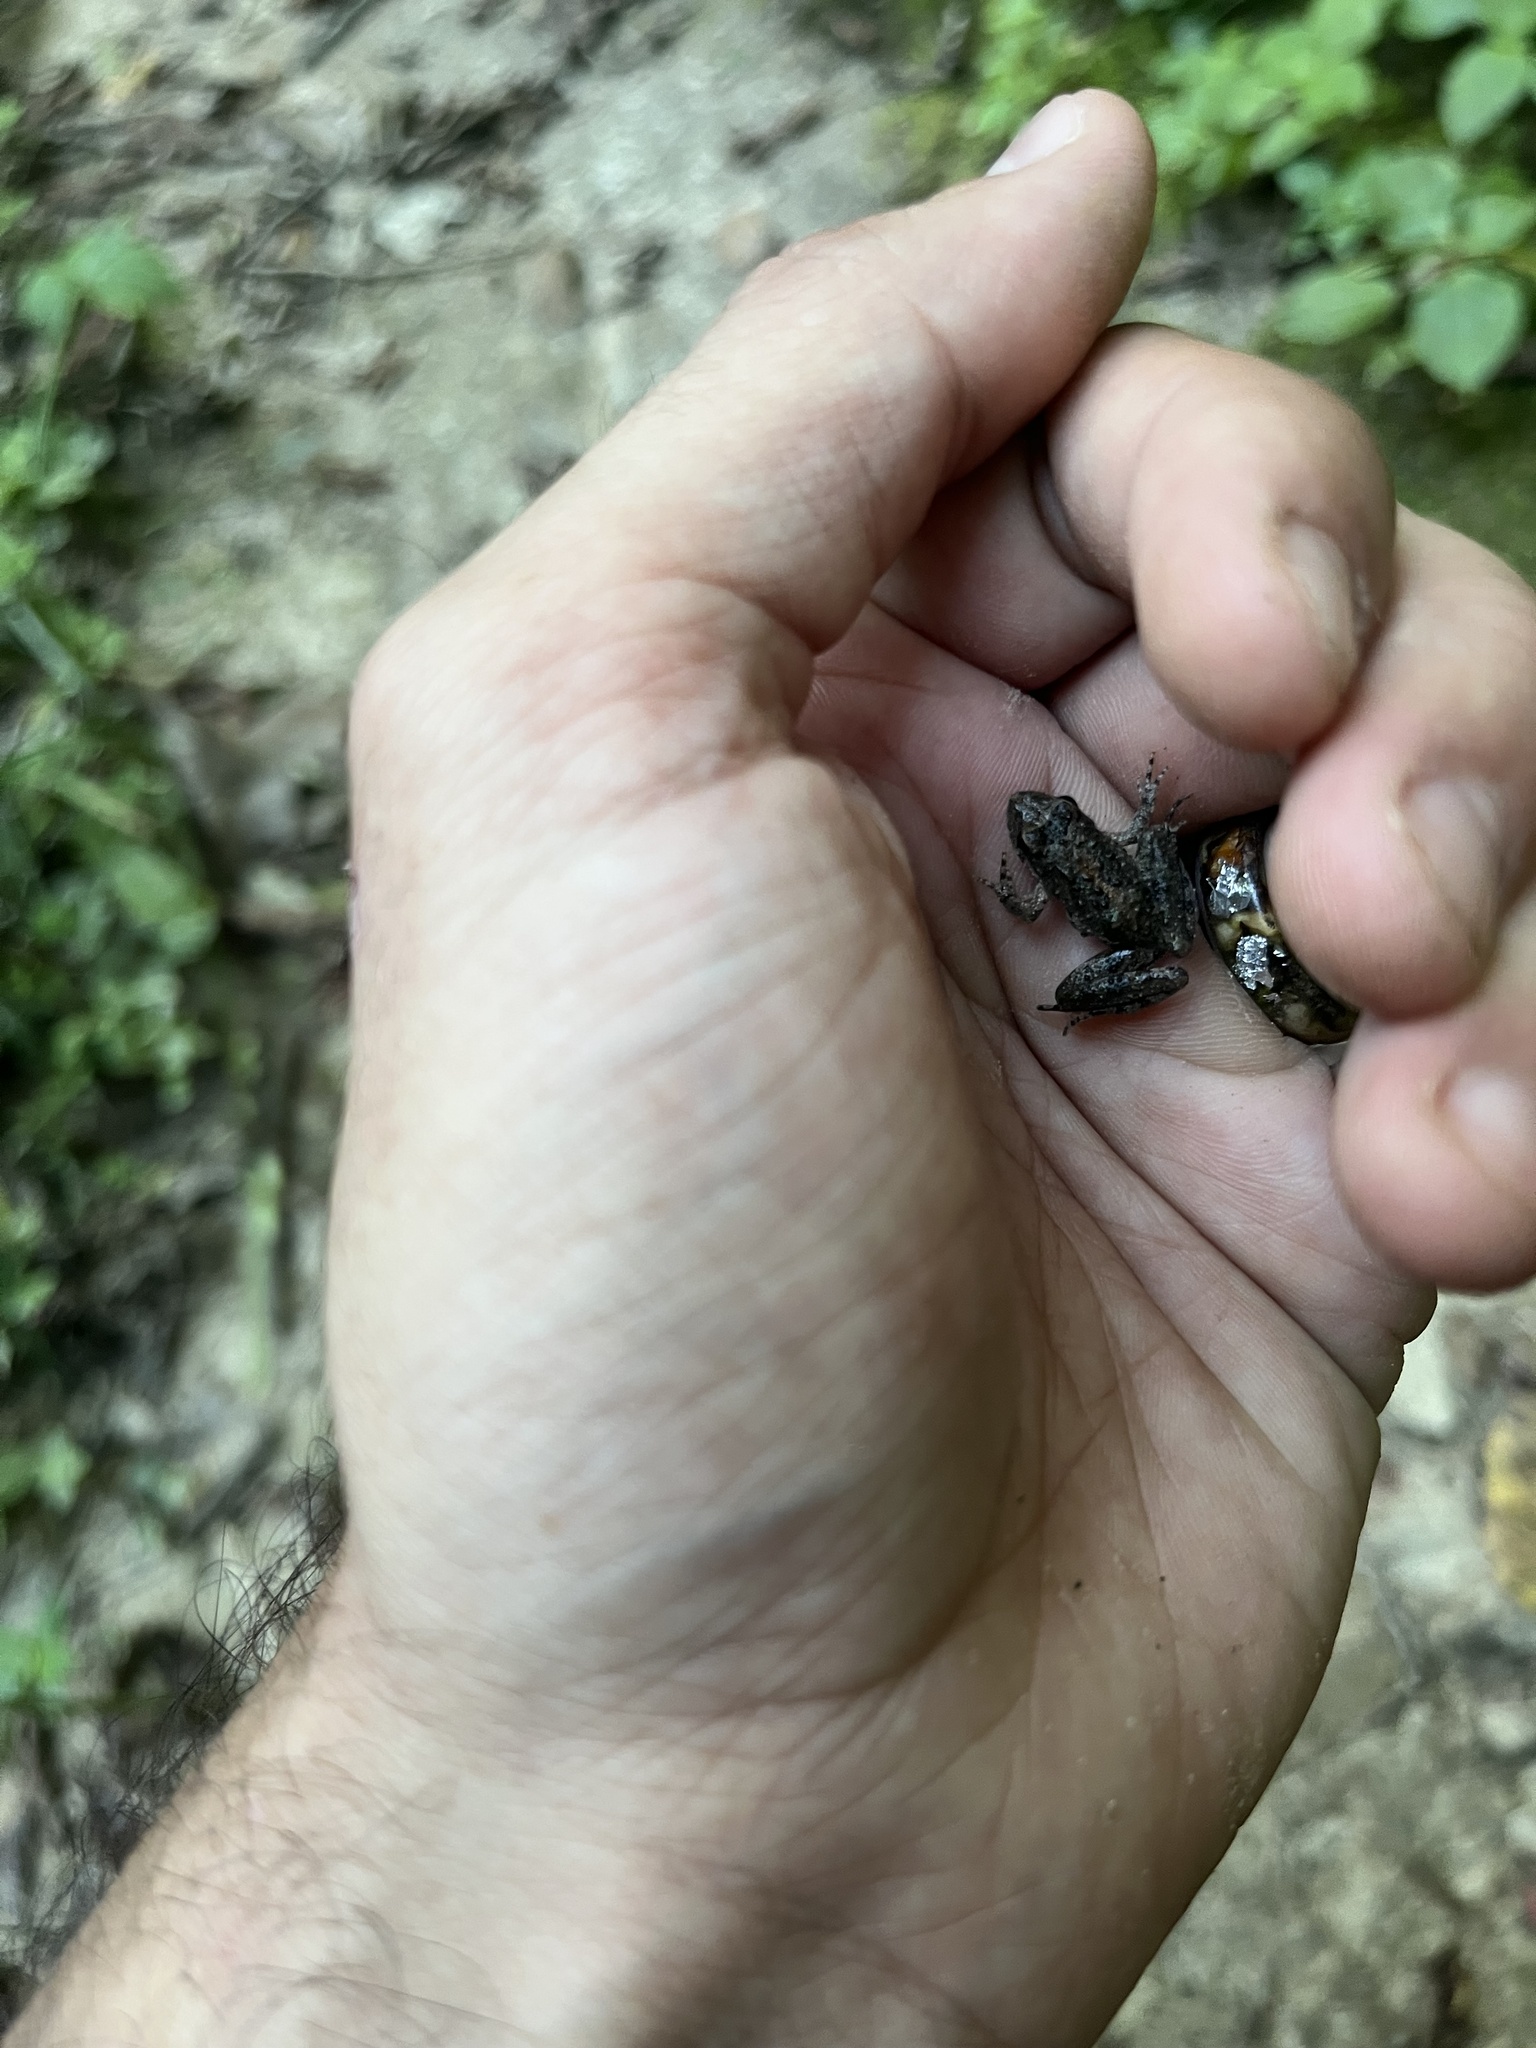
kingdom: Animalia
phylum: Chordata
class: Amphibia
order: Anura
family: Hylidae
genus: Acris
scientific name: Acris blanchardi
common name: Blanchard's cricket frog
